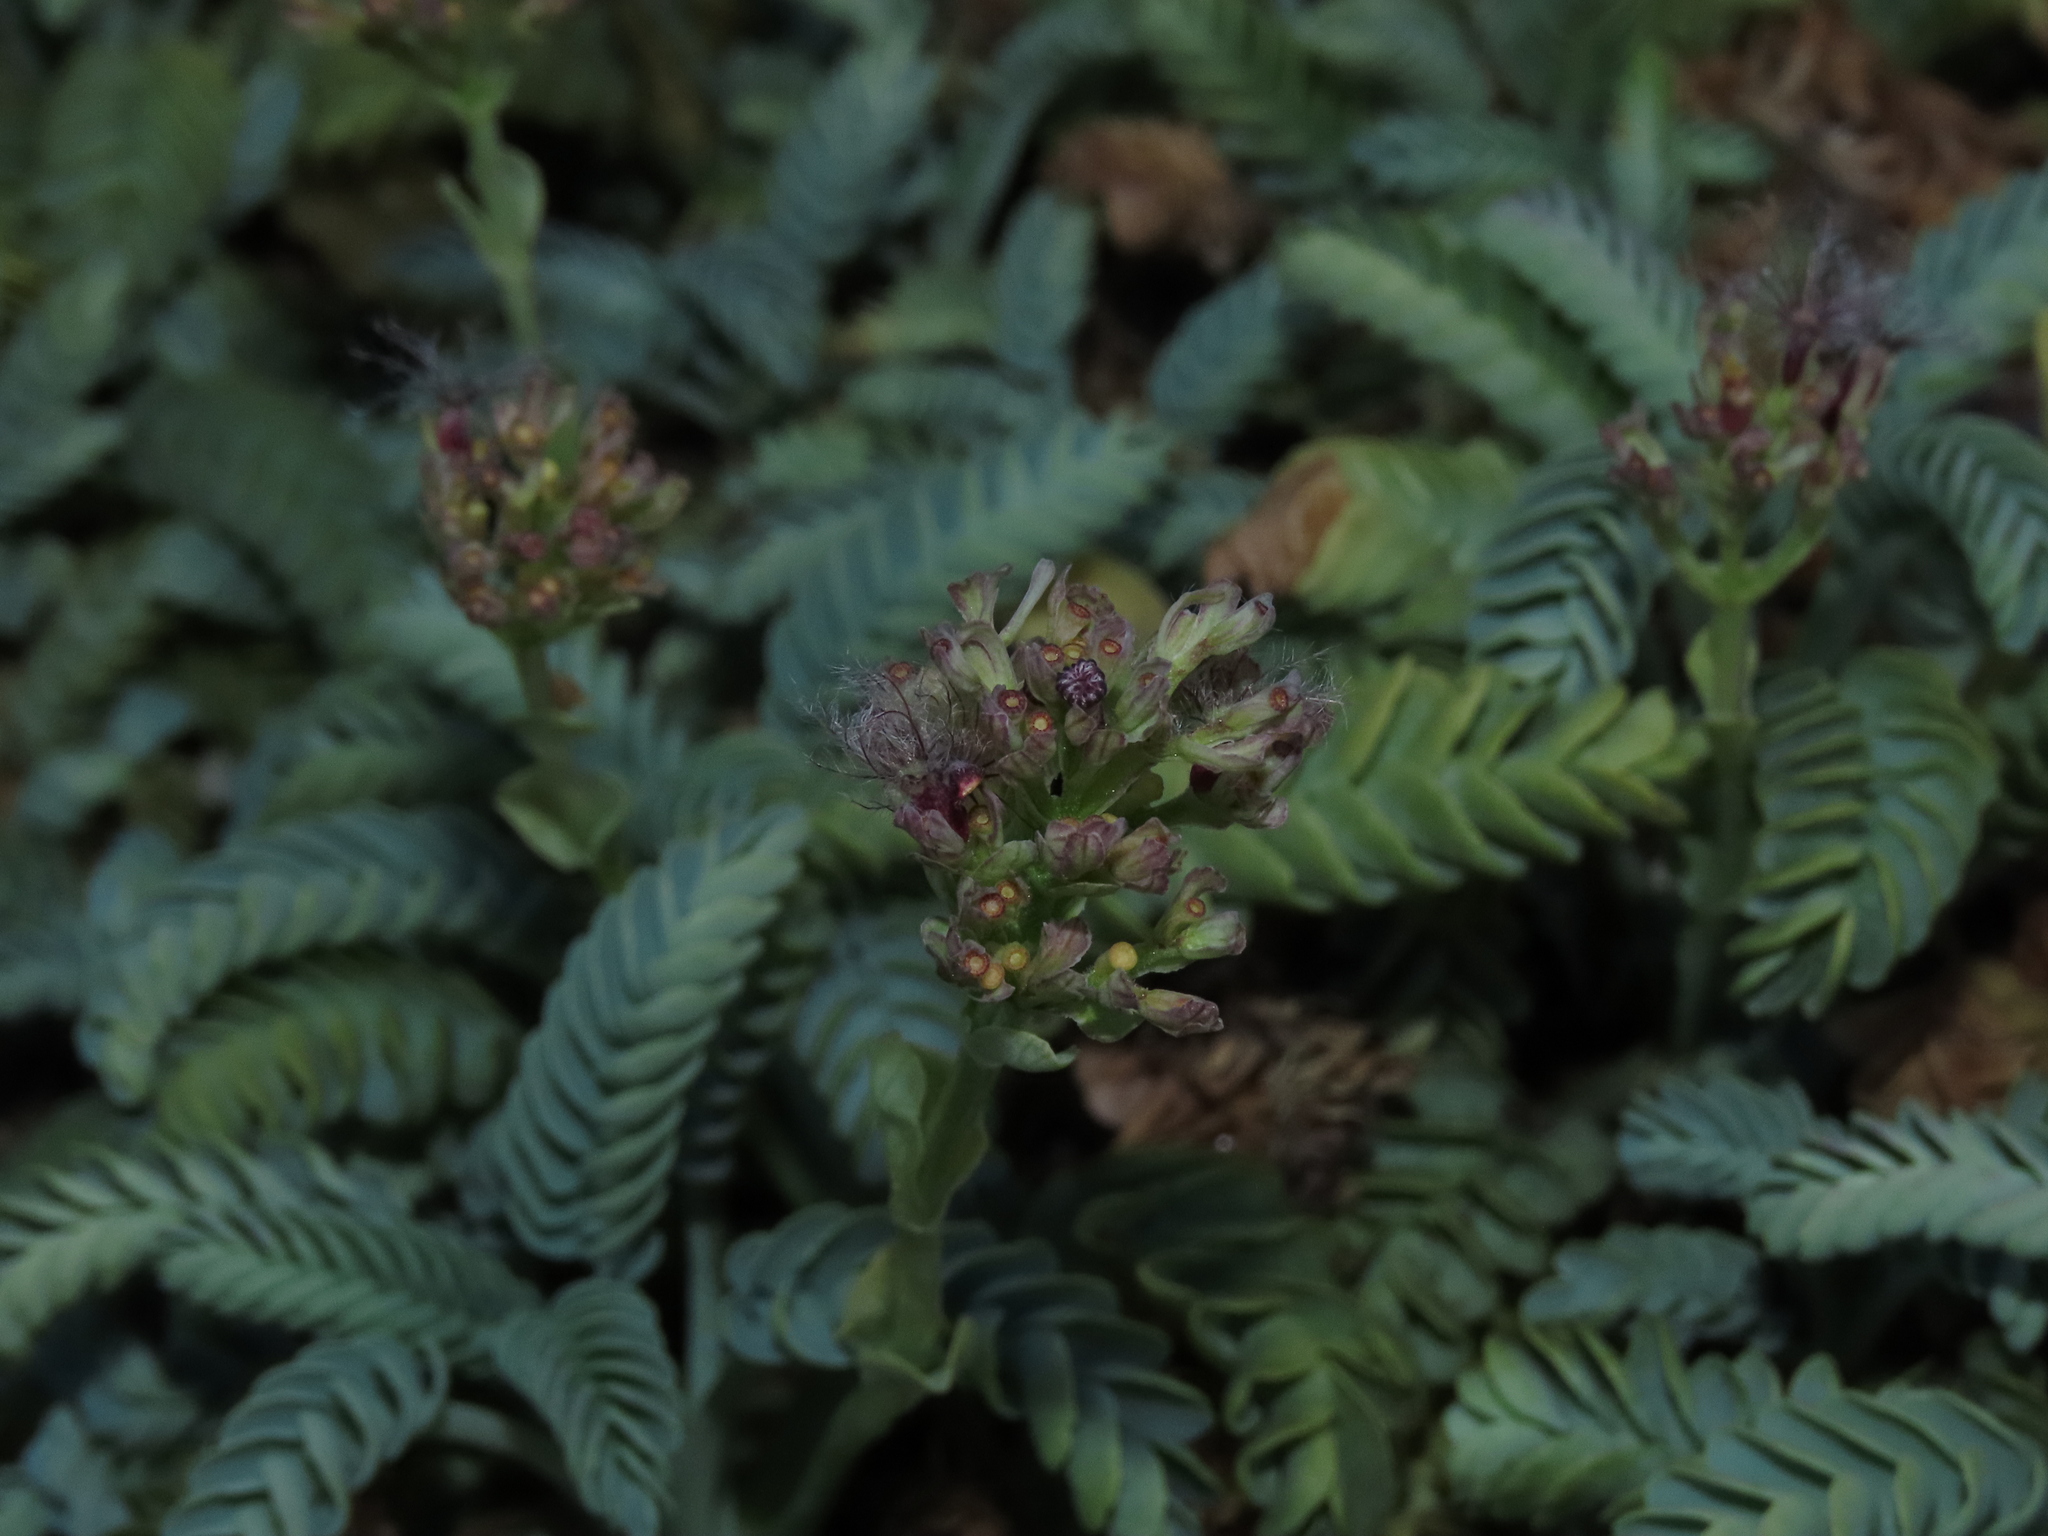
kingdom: Plantae
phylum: Tracheophyta
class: Magnoliopsida
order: Dipsacales
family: Caprifoliaceae
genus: Valeriana
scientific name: Valeriana philippiana
